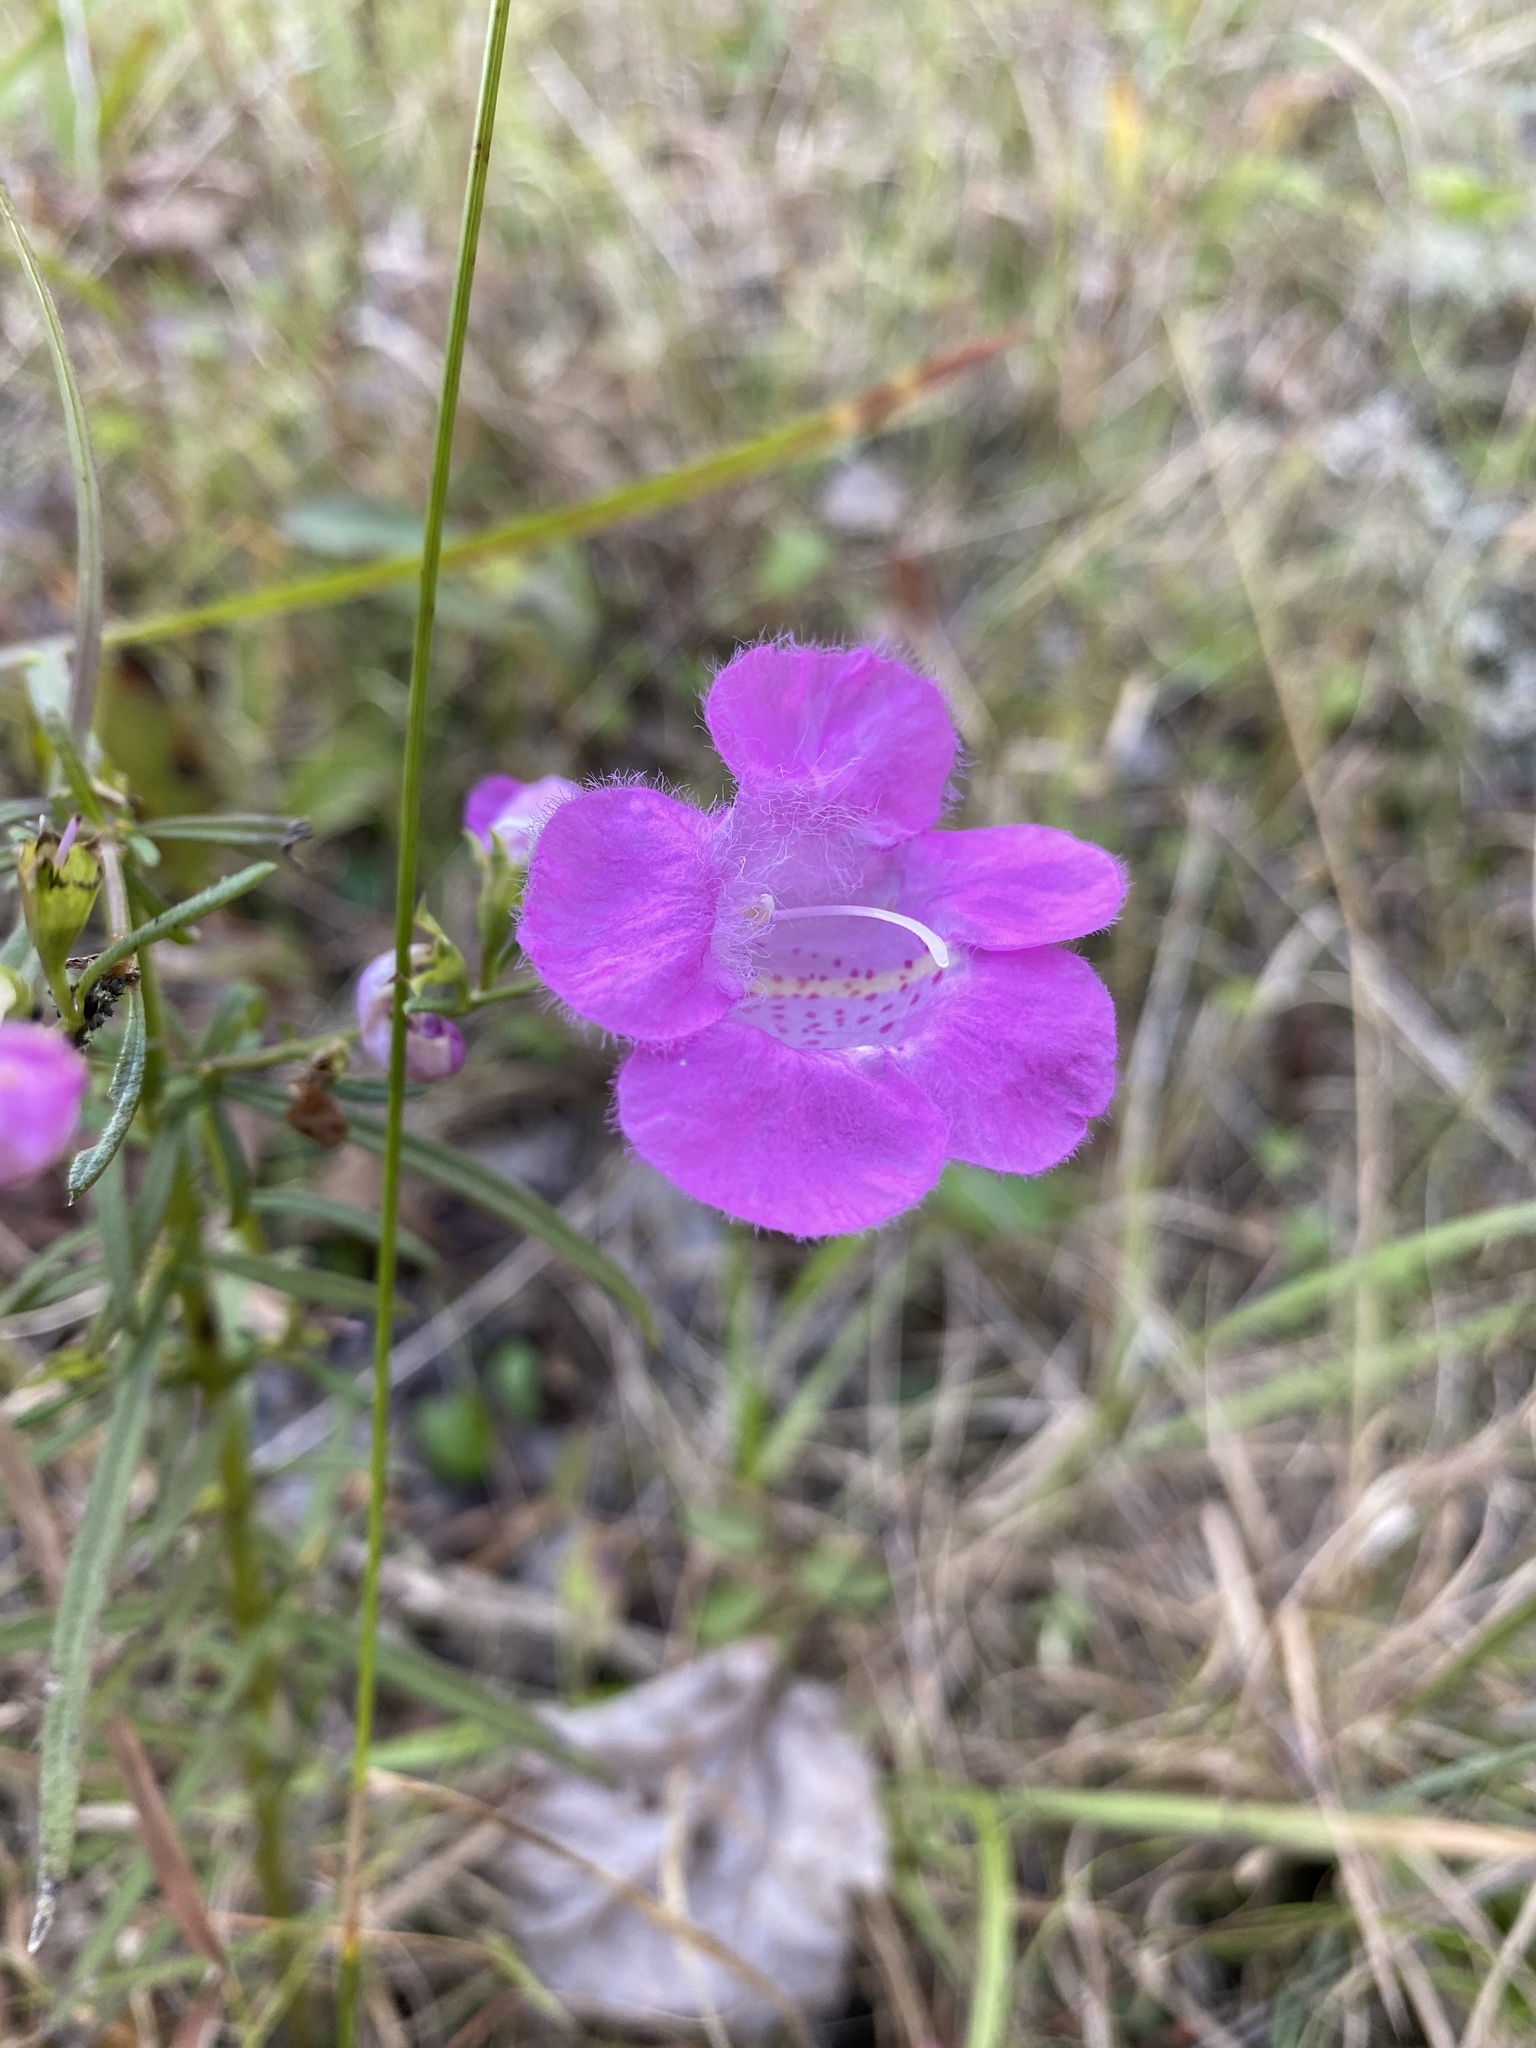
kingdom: Plantae
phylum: Tracheophyta
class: Magnoliopsida
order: Lamiales
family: Orobanchaceae
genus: Agalinis
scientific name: Agalinis purpurea
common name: Purple false foxglove
